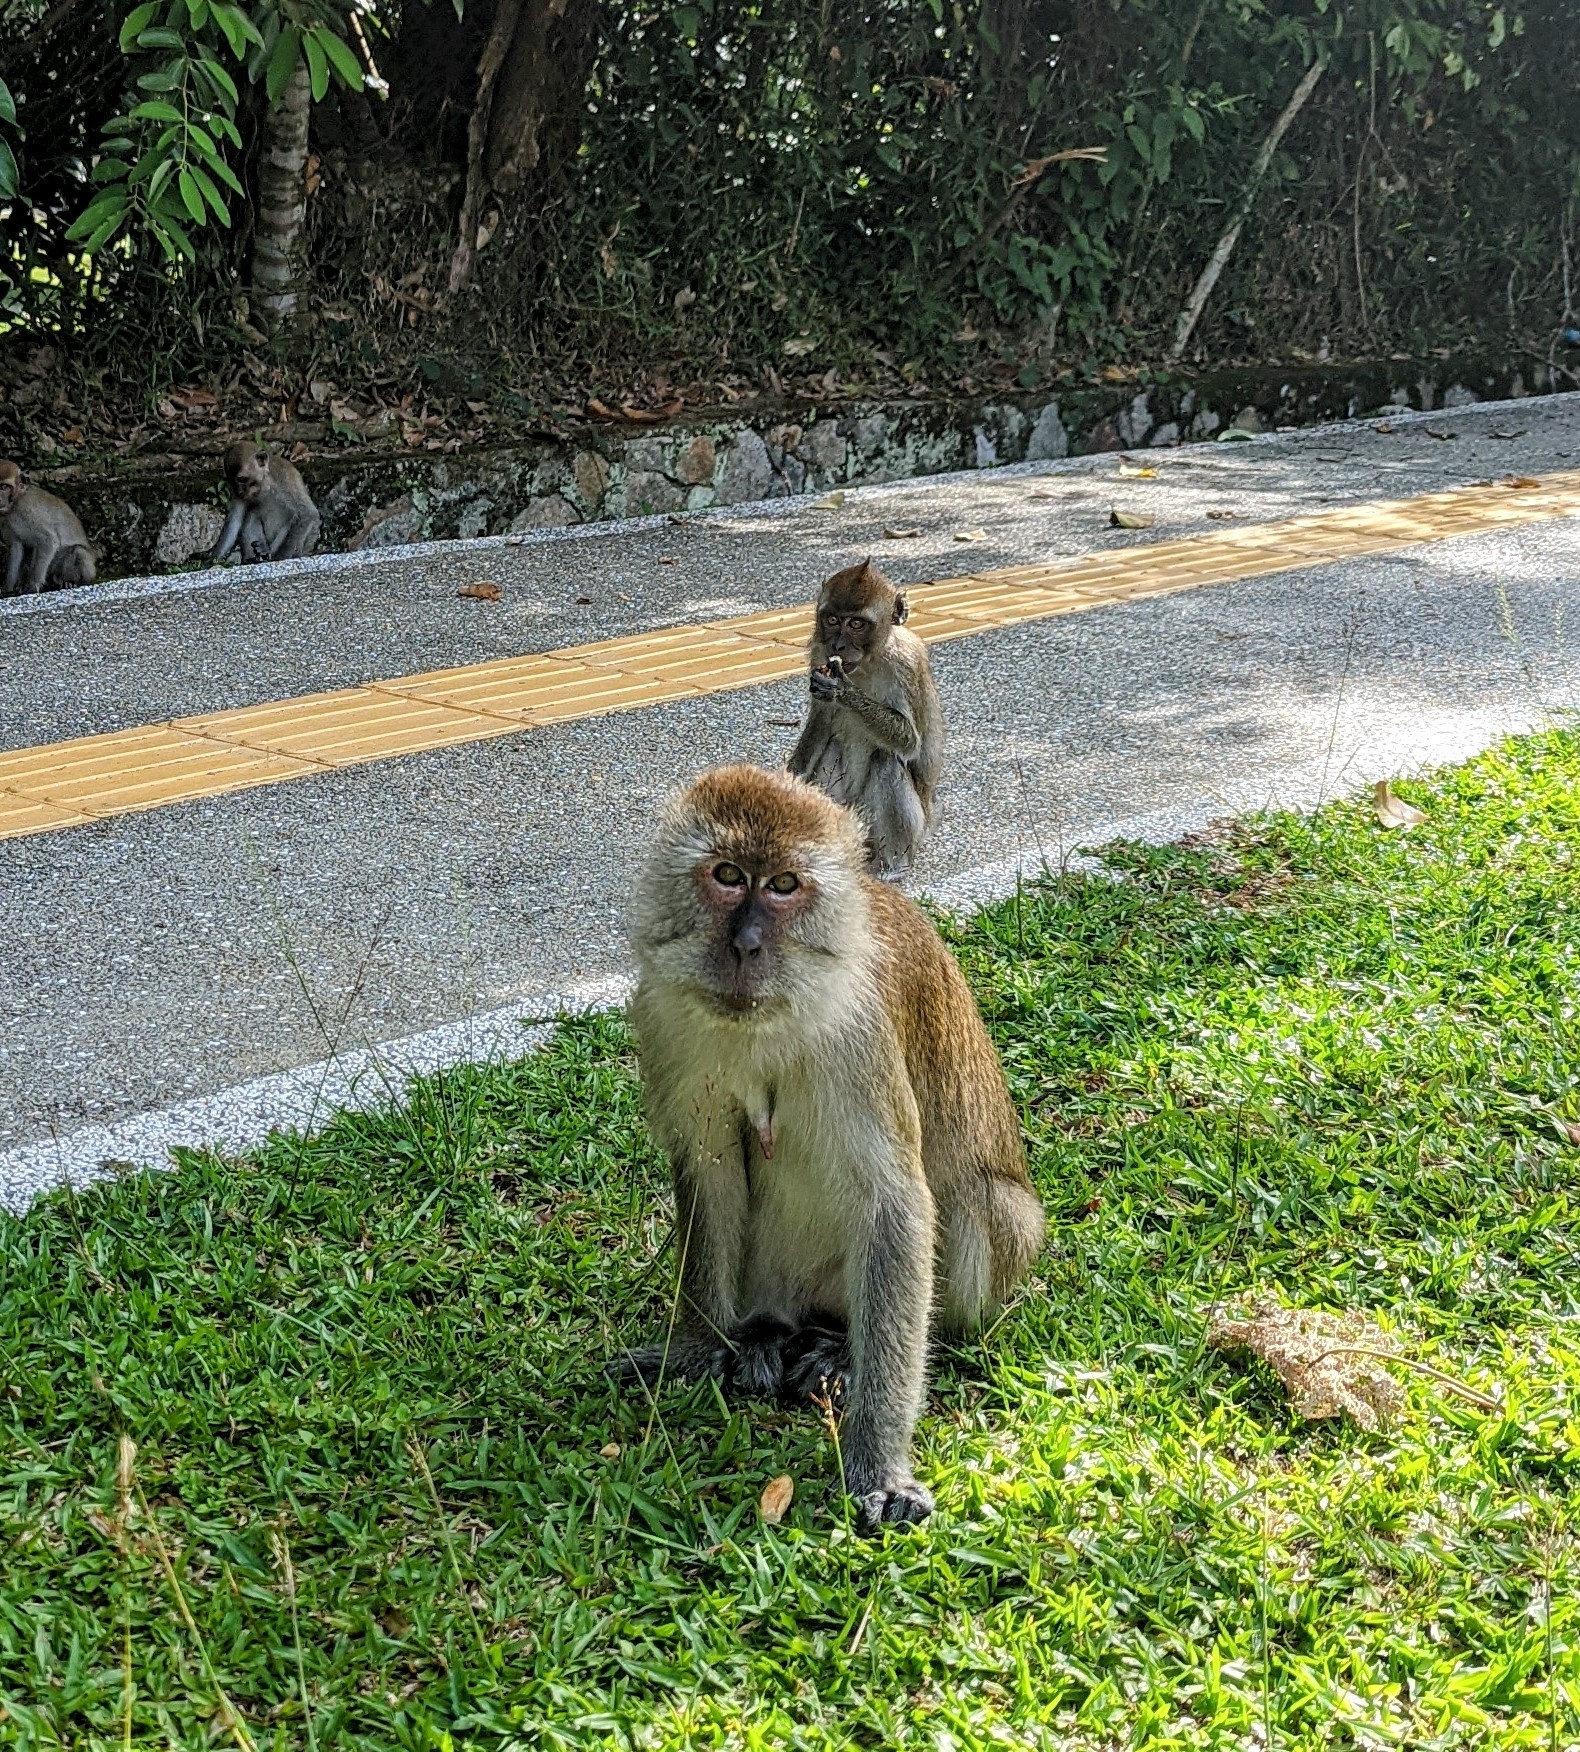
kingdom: Animalia
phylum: Chordata
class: Mammalia
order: Primates
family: Cercopithecidae
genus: Macaca
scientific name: Macaca fascicularis
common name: Crab-eating macaque
